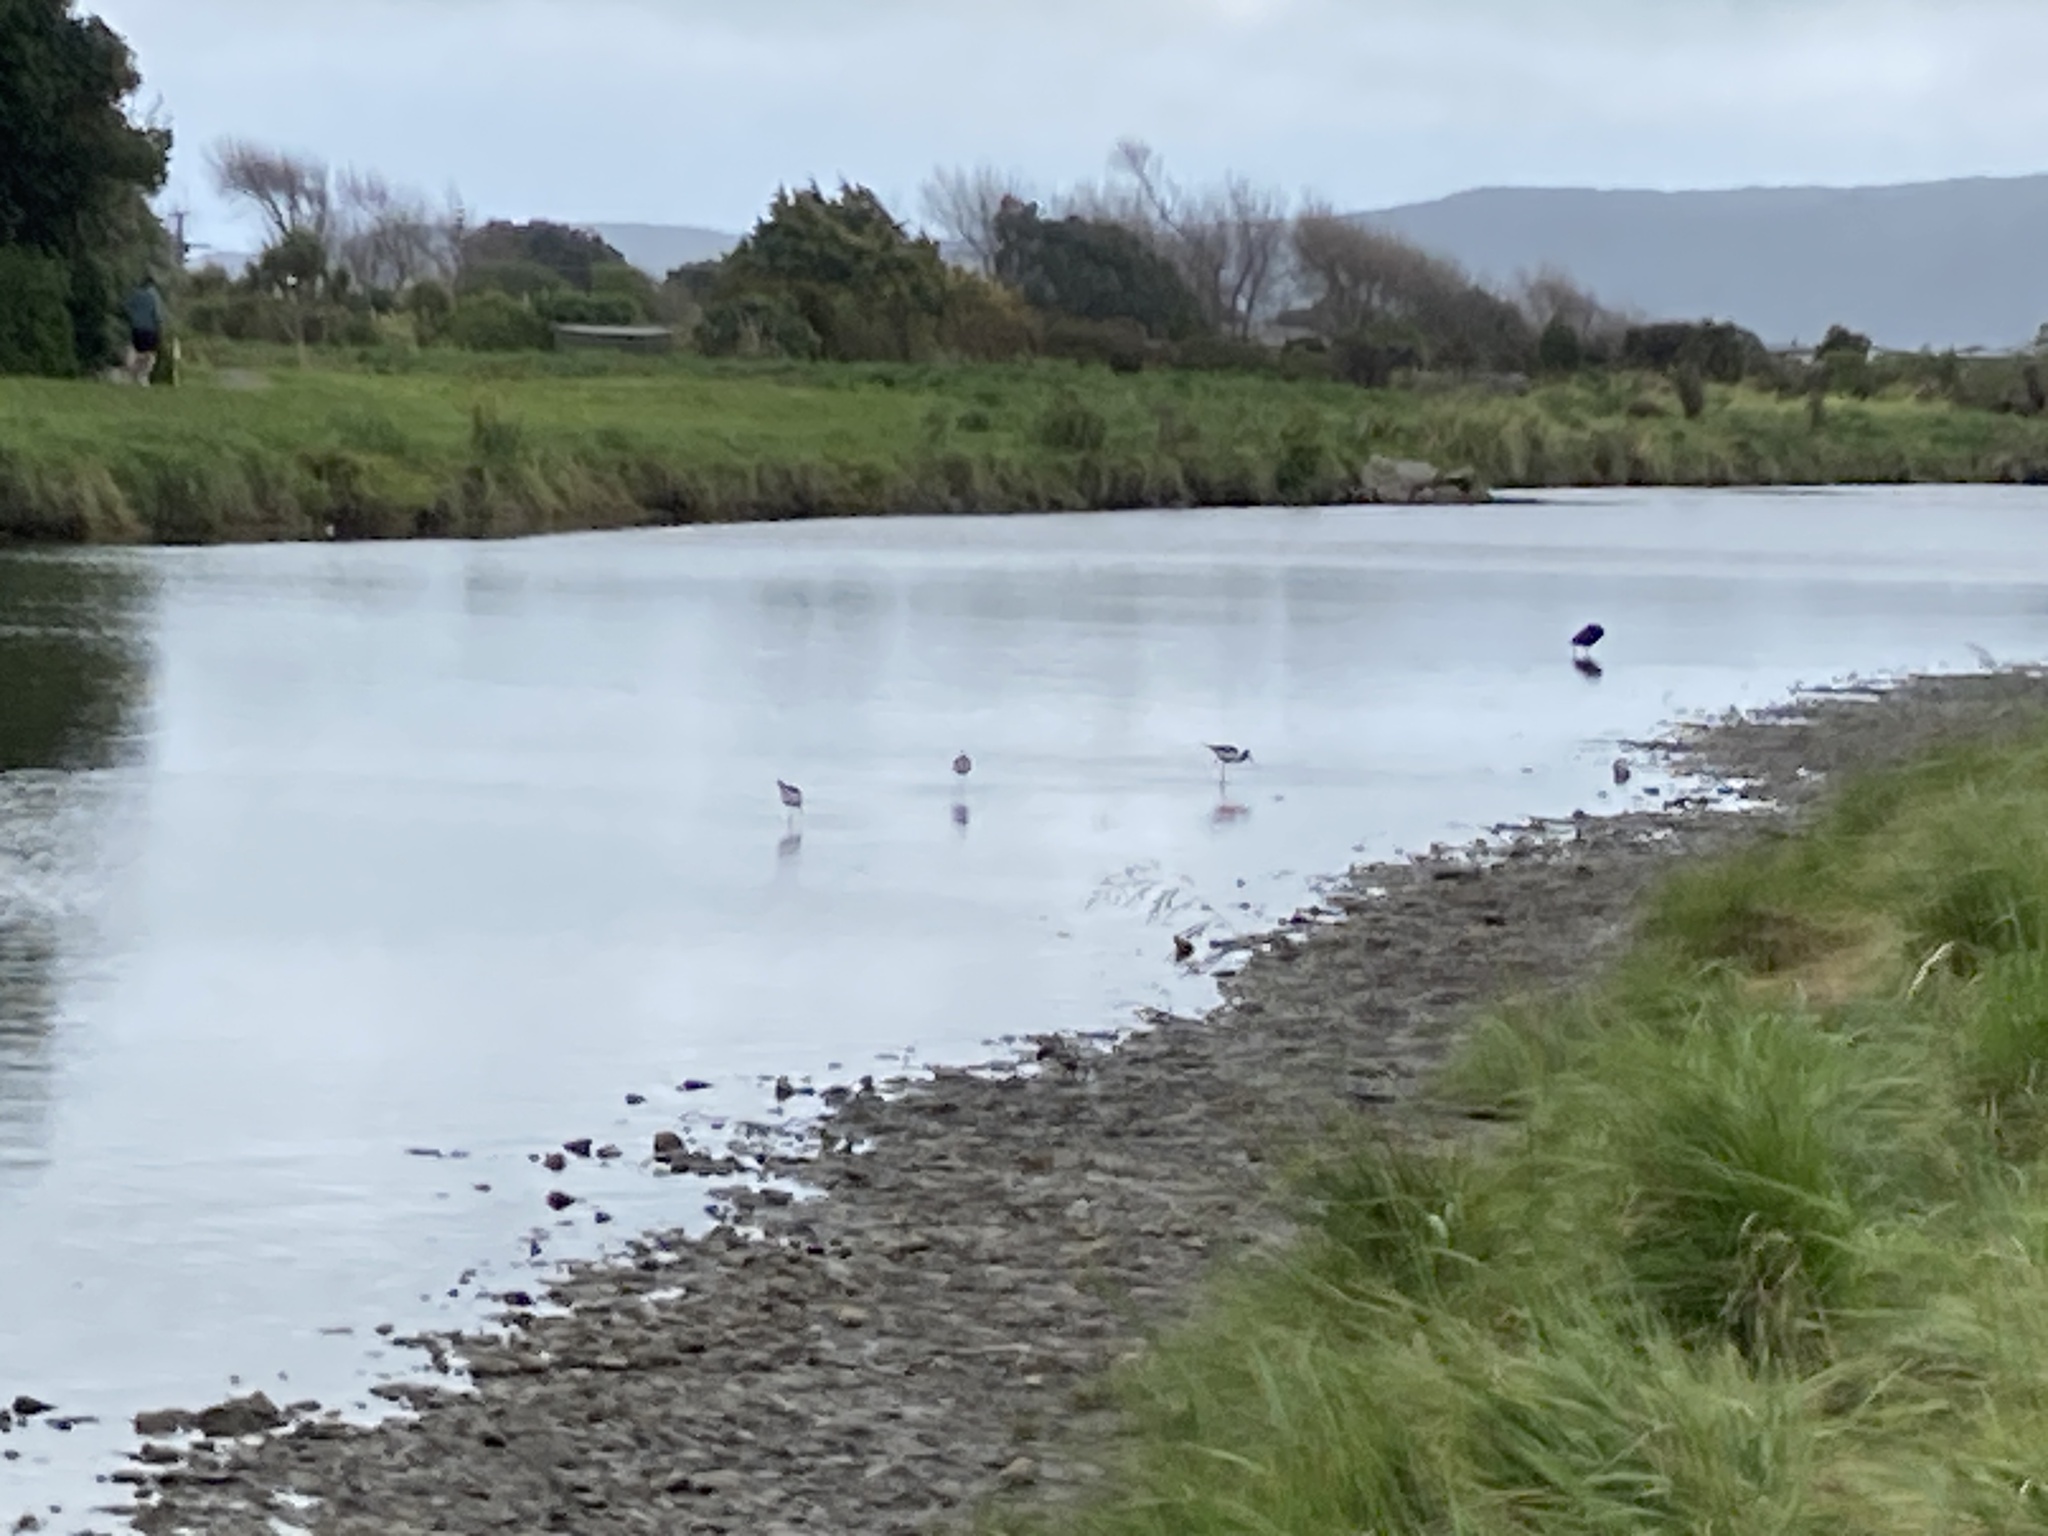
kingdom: Animalia
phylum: Chordata
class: Aves
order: Charadriiformes
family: Recurvirostridae
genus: Himantopus
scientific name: Himantopus leucocephalus
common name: White-headed stilt
